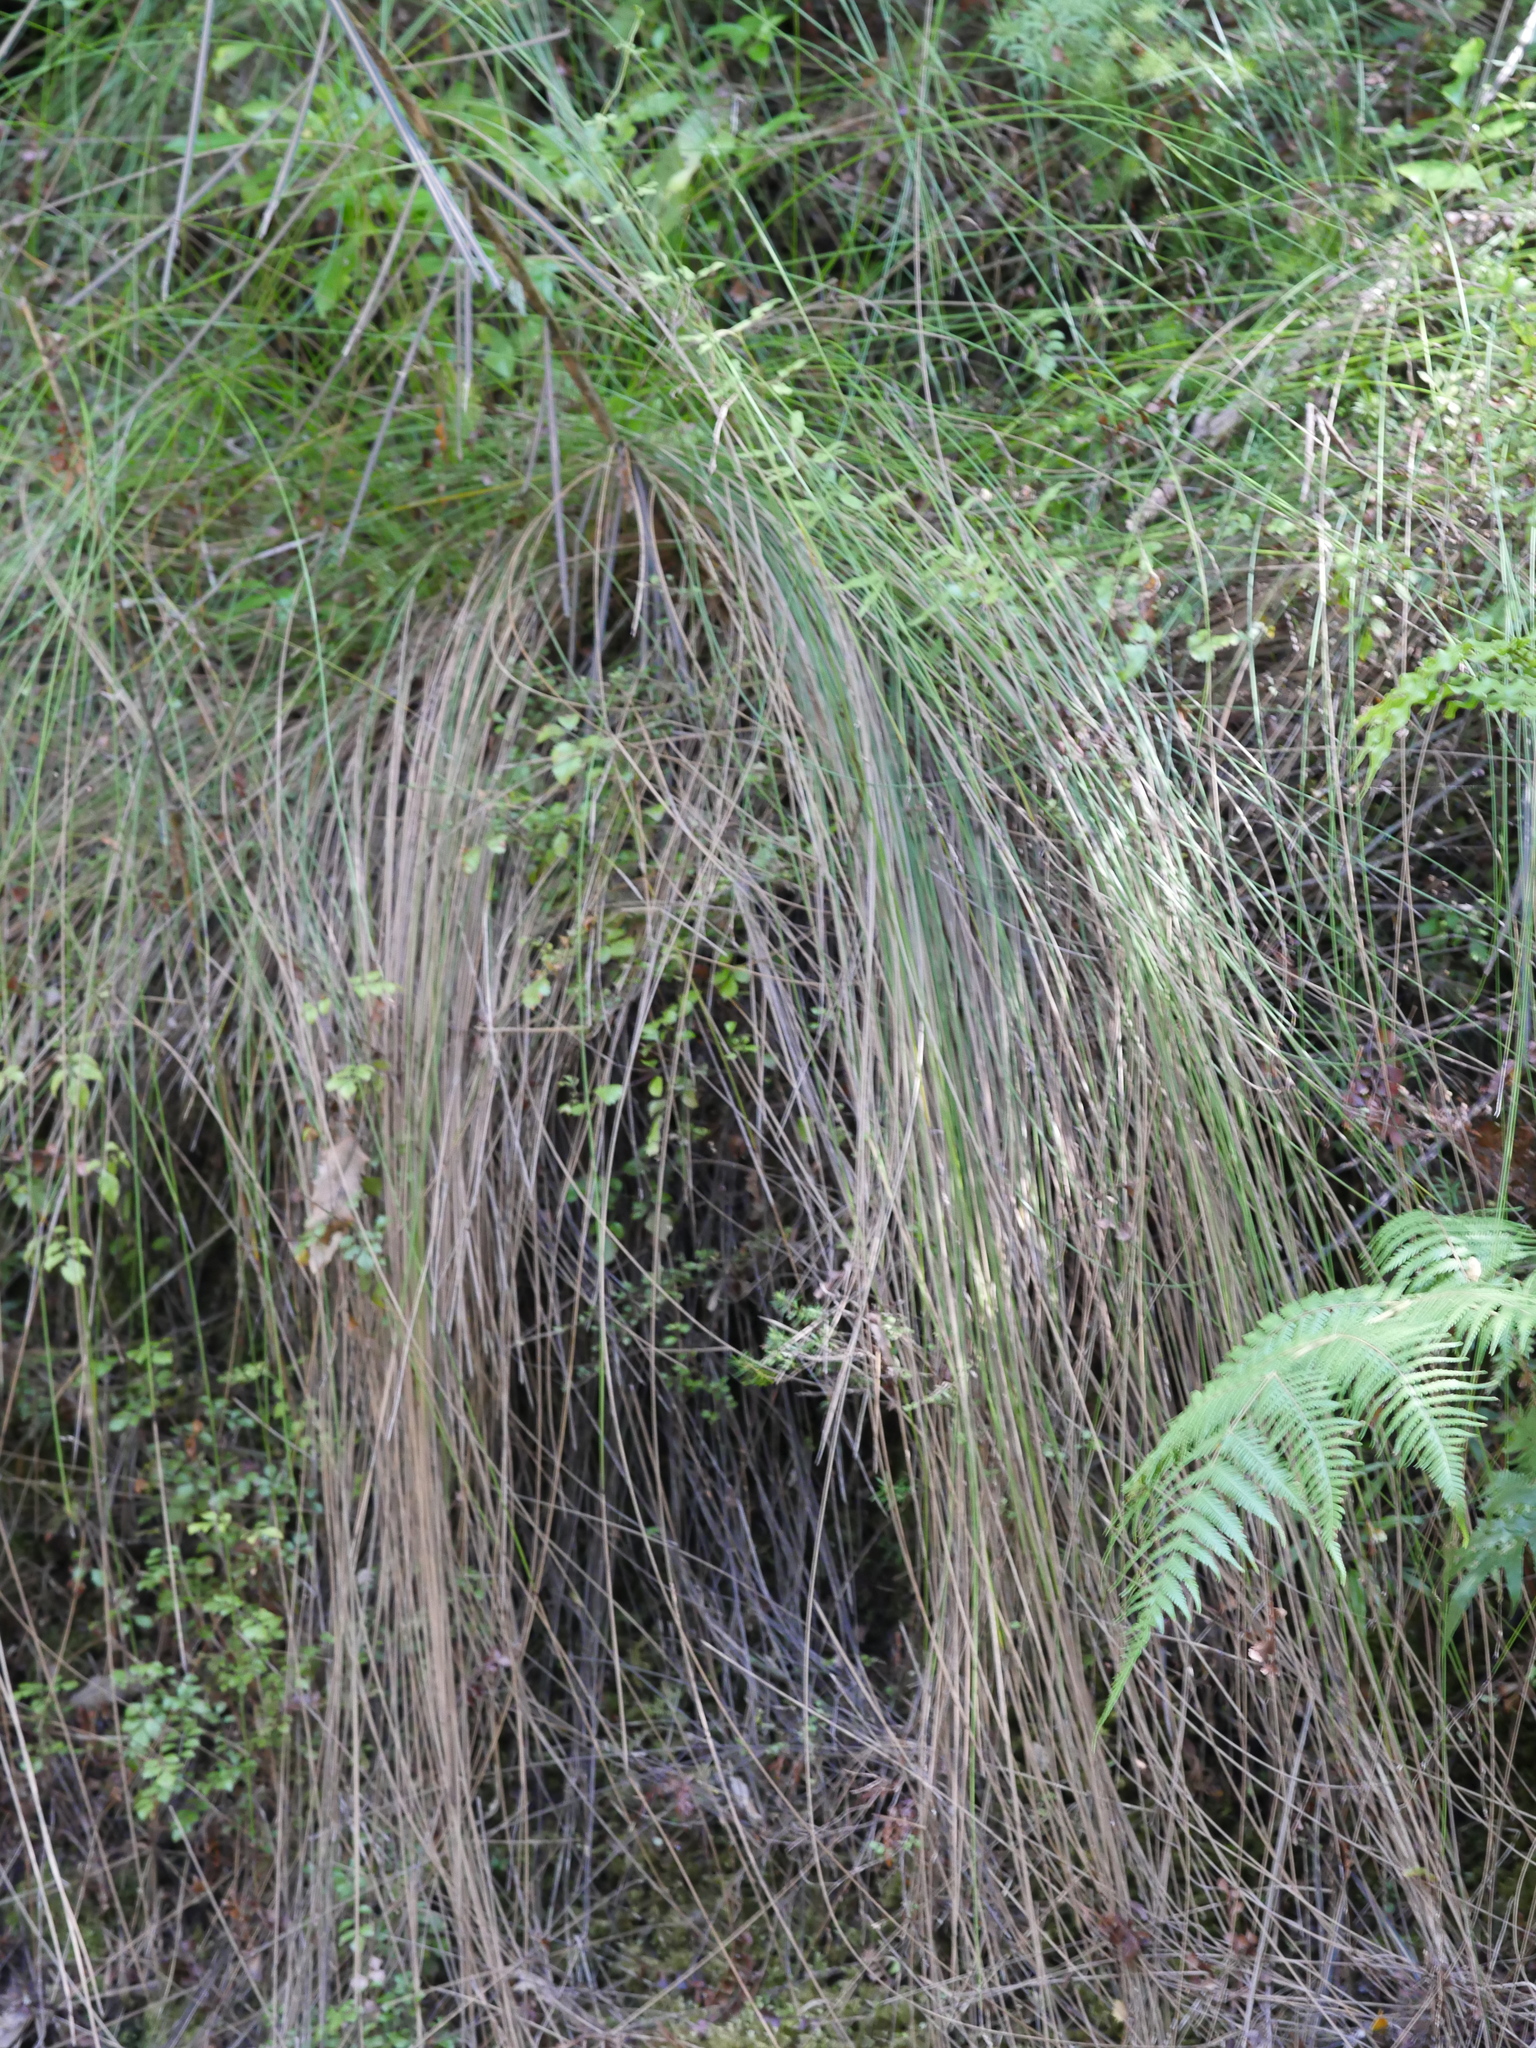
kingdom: Plantae
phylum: Tracheophyta
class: Liliopsida
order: Poales
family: Cyperaceae
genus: Schoenus
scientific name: Schoenus tendo
